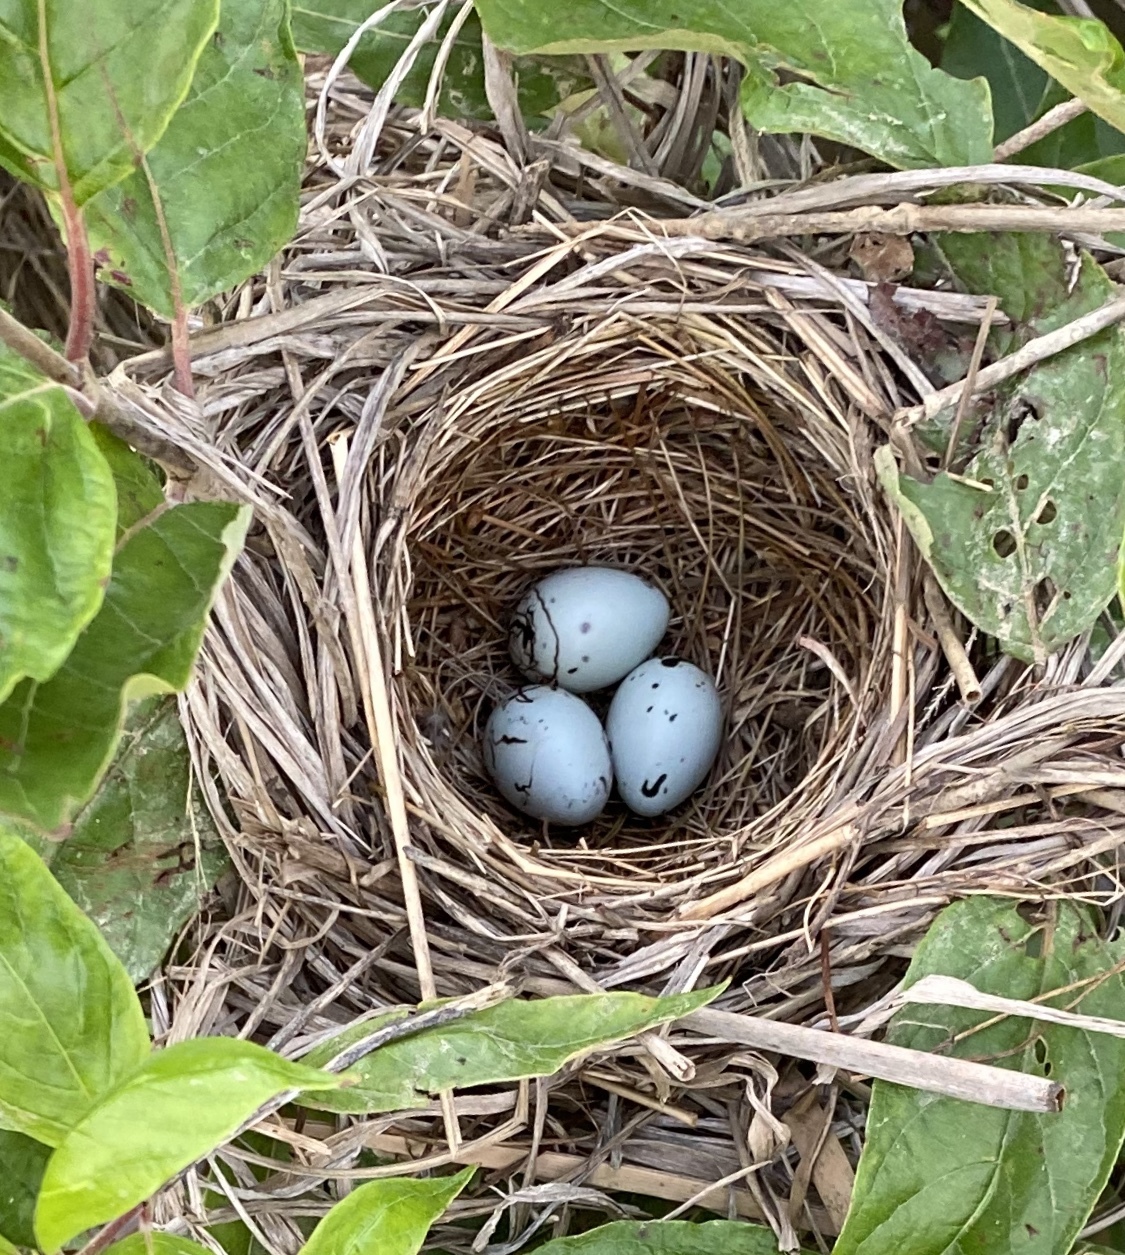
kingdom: Animalia
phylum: Chordata
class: Aves
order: Passeriformes
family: Icteridae
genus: Agelaius
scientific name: Agelaius phoeniceus
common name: Red-winged blackbird
